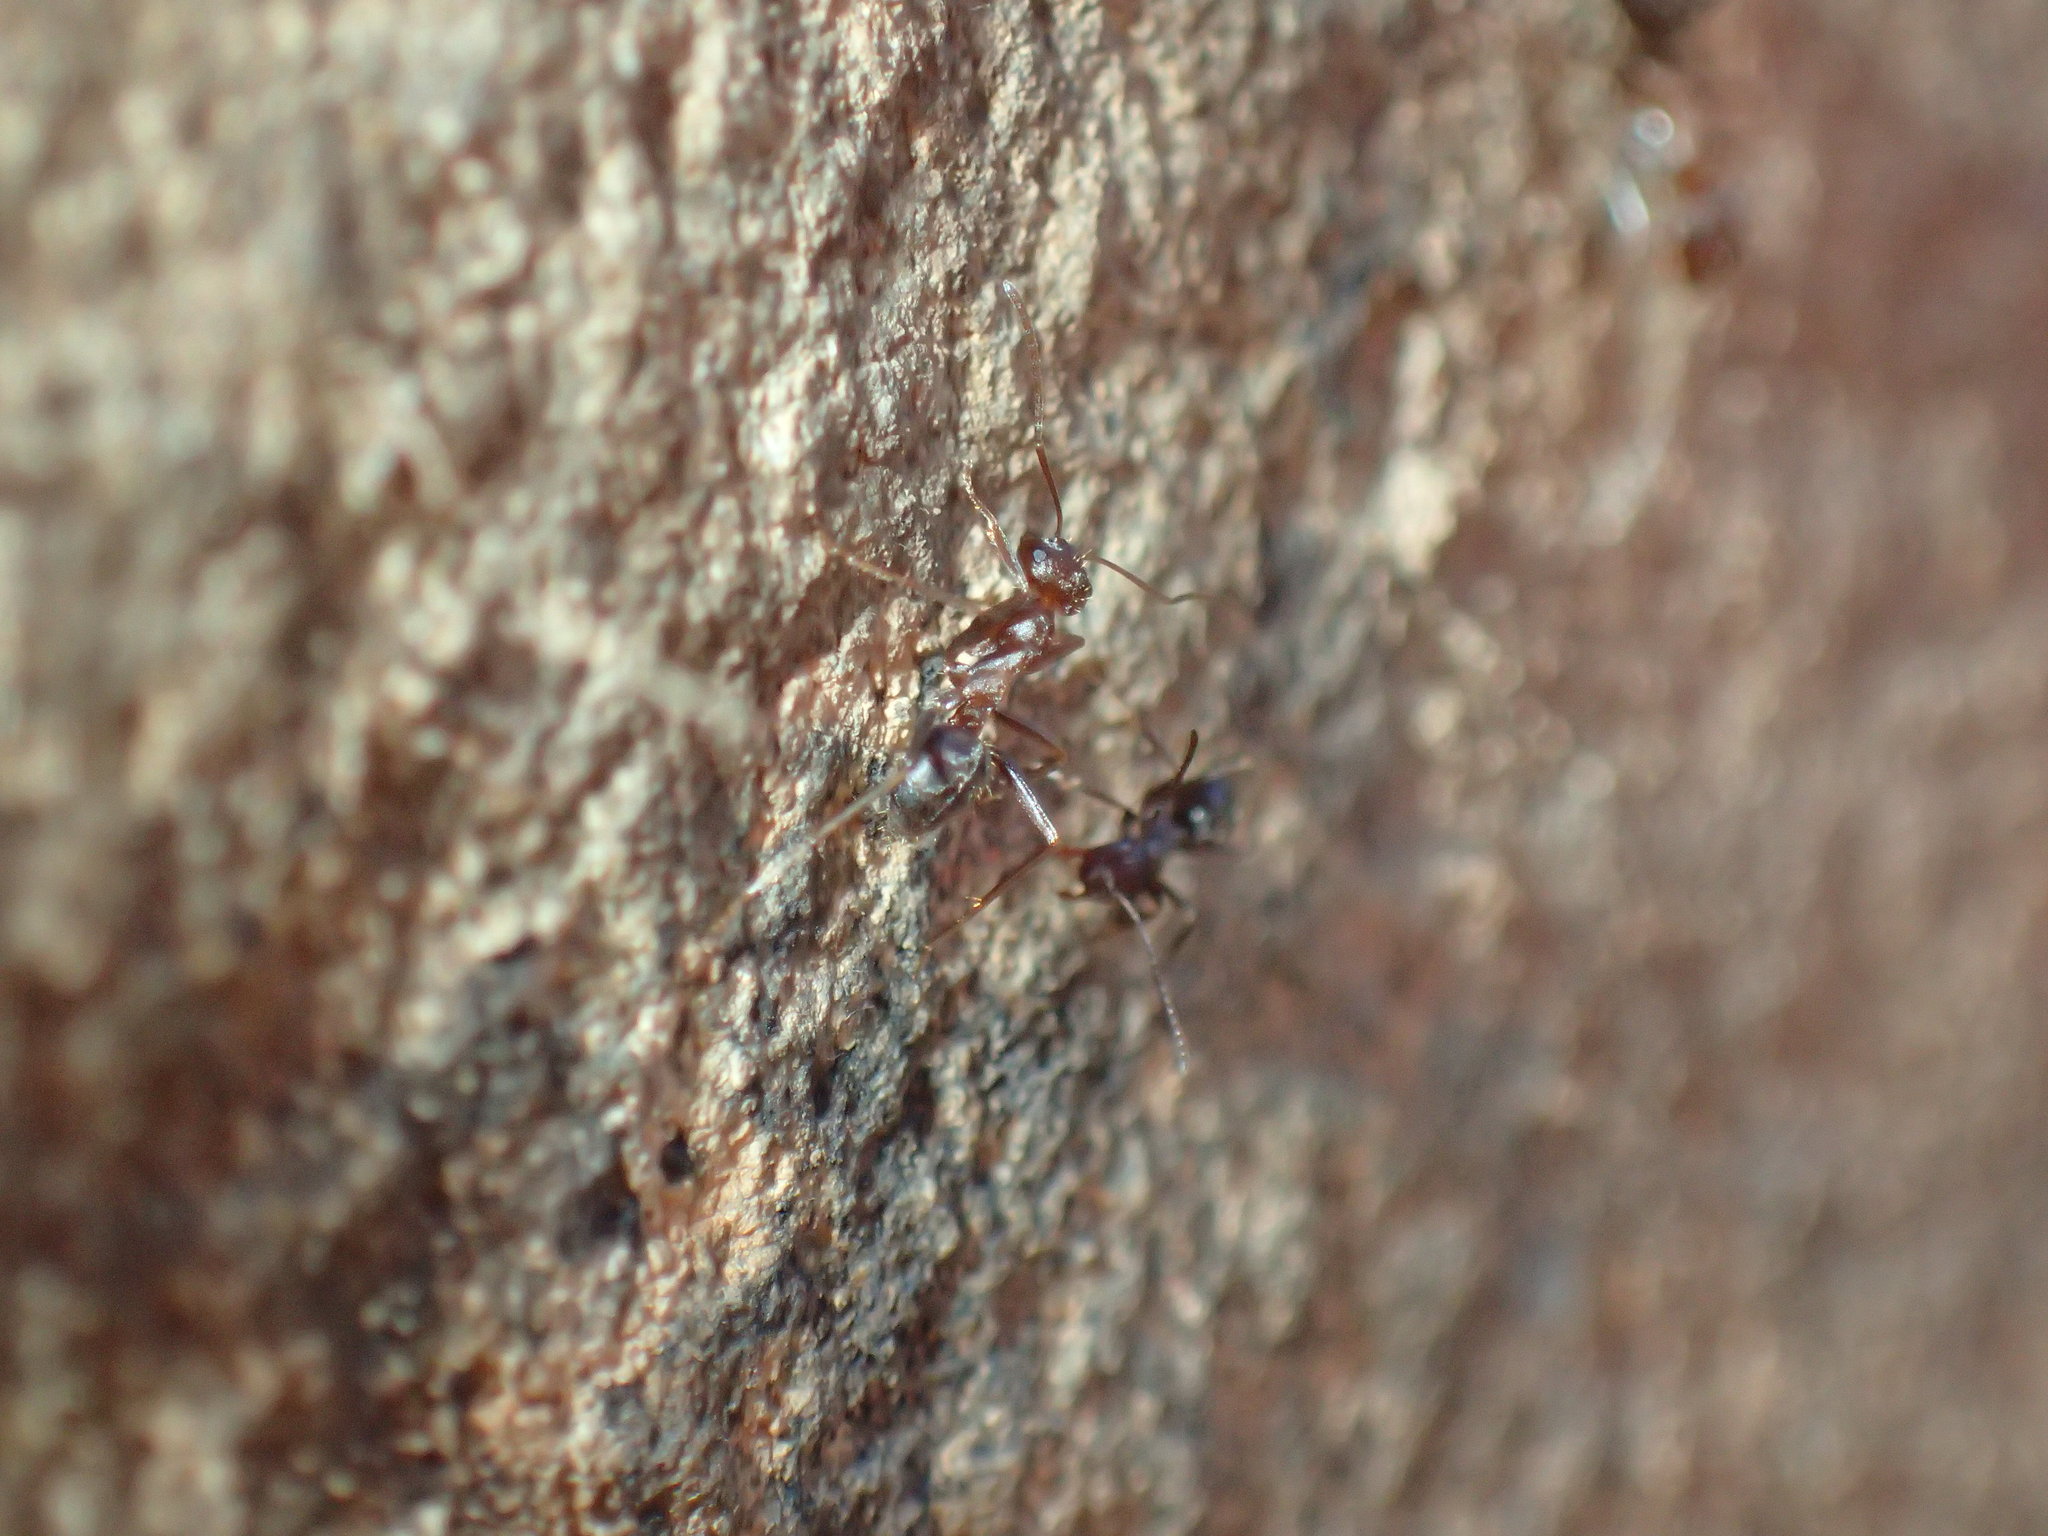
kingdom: Animalia
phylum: Arthropoda
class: Insecta
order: Hymenoptera
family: Formicidae
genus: Anoplolepis
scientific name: Anoplolepis custodiens
